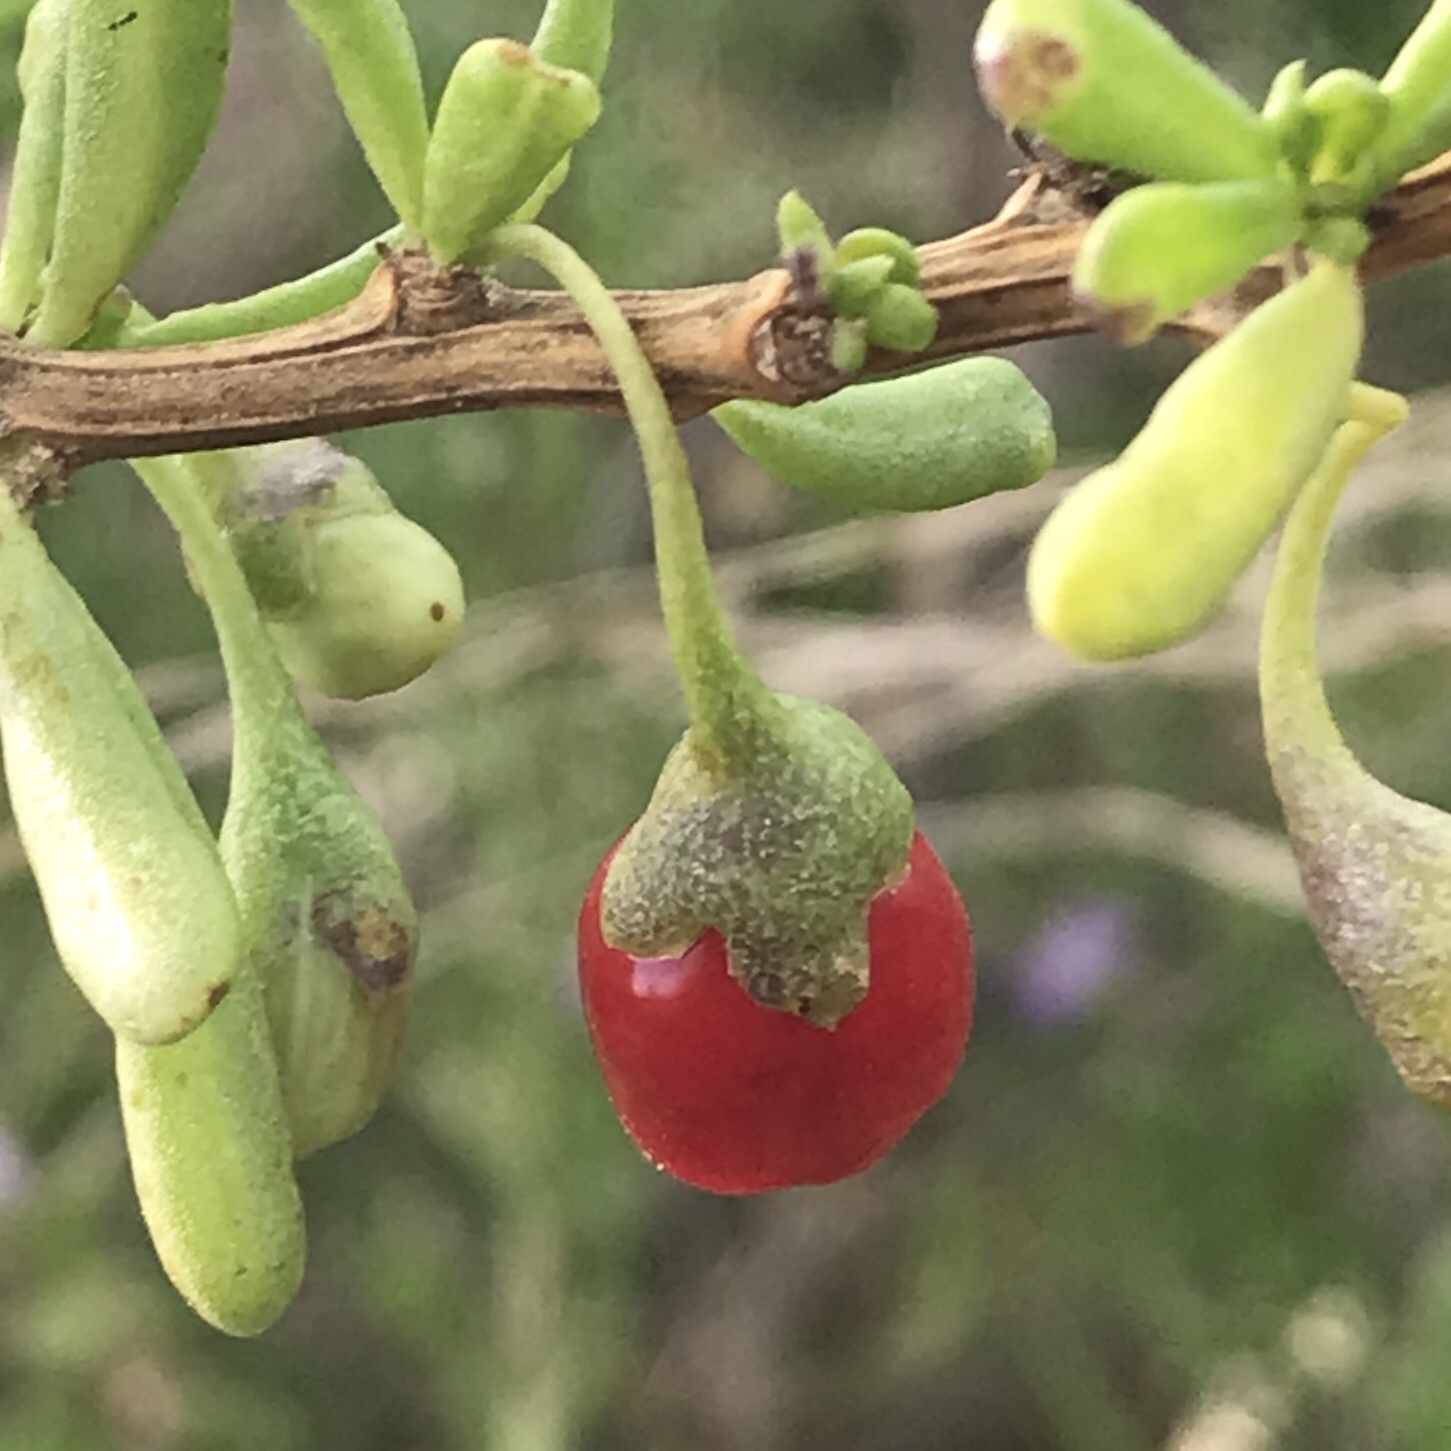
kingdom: Plantae
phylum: Tracheophyta
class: Magnoliopsida
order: Solanales
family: Solanaceae
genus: Lycium
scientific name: Lycium carolinianum
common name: Christmasberry
